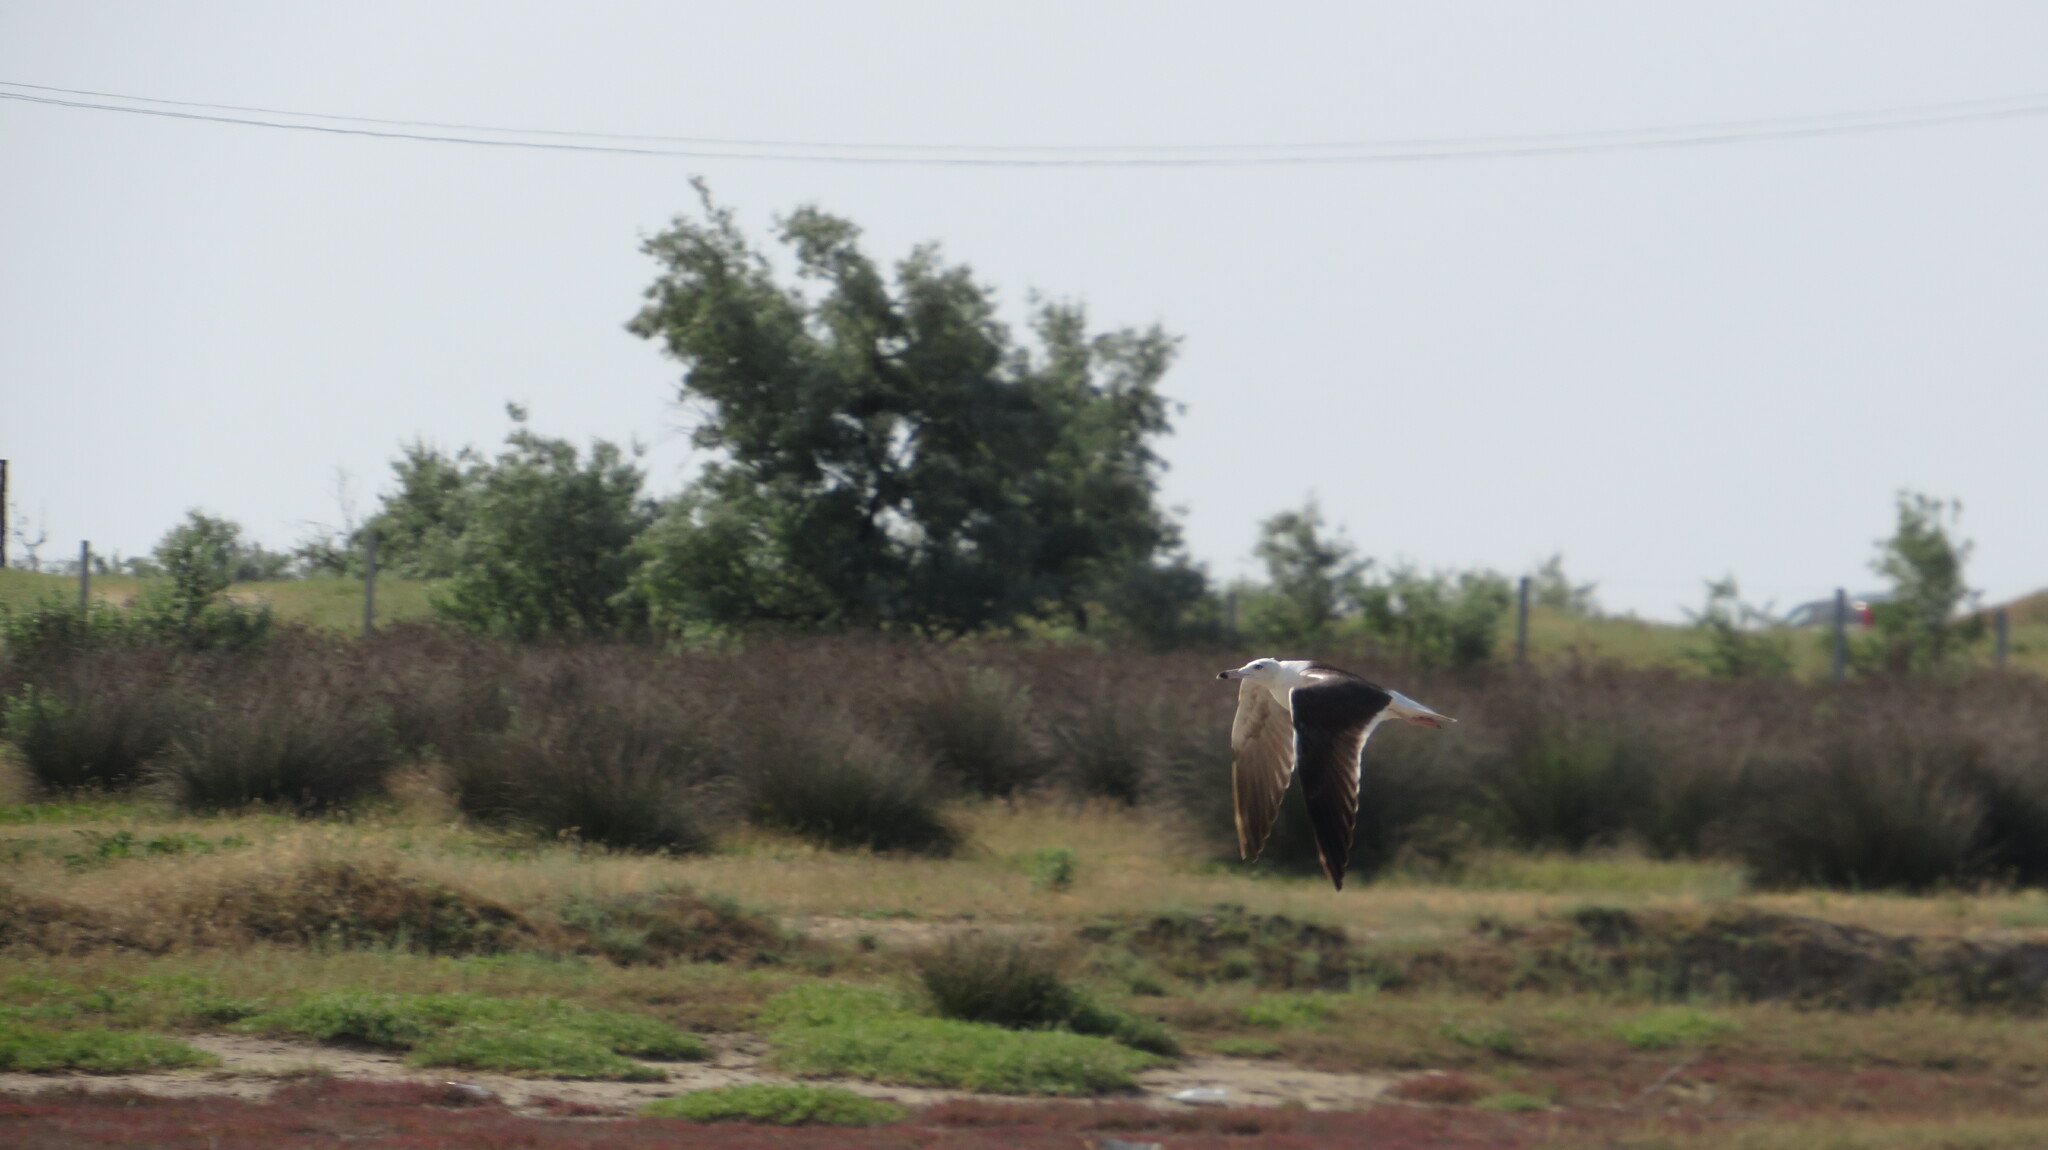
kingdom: Animalia
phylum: Chordata
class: Aves
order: Charadriiformes
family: Laridae
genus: Larus
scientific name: Larus fuscus
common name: Lesser black-backed gull
